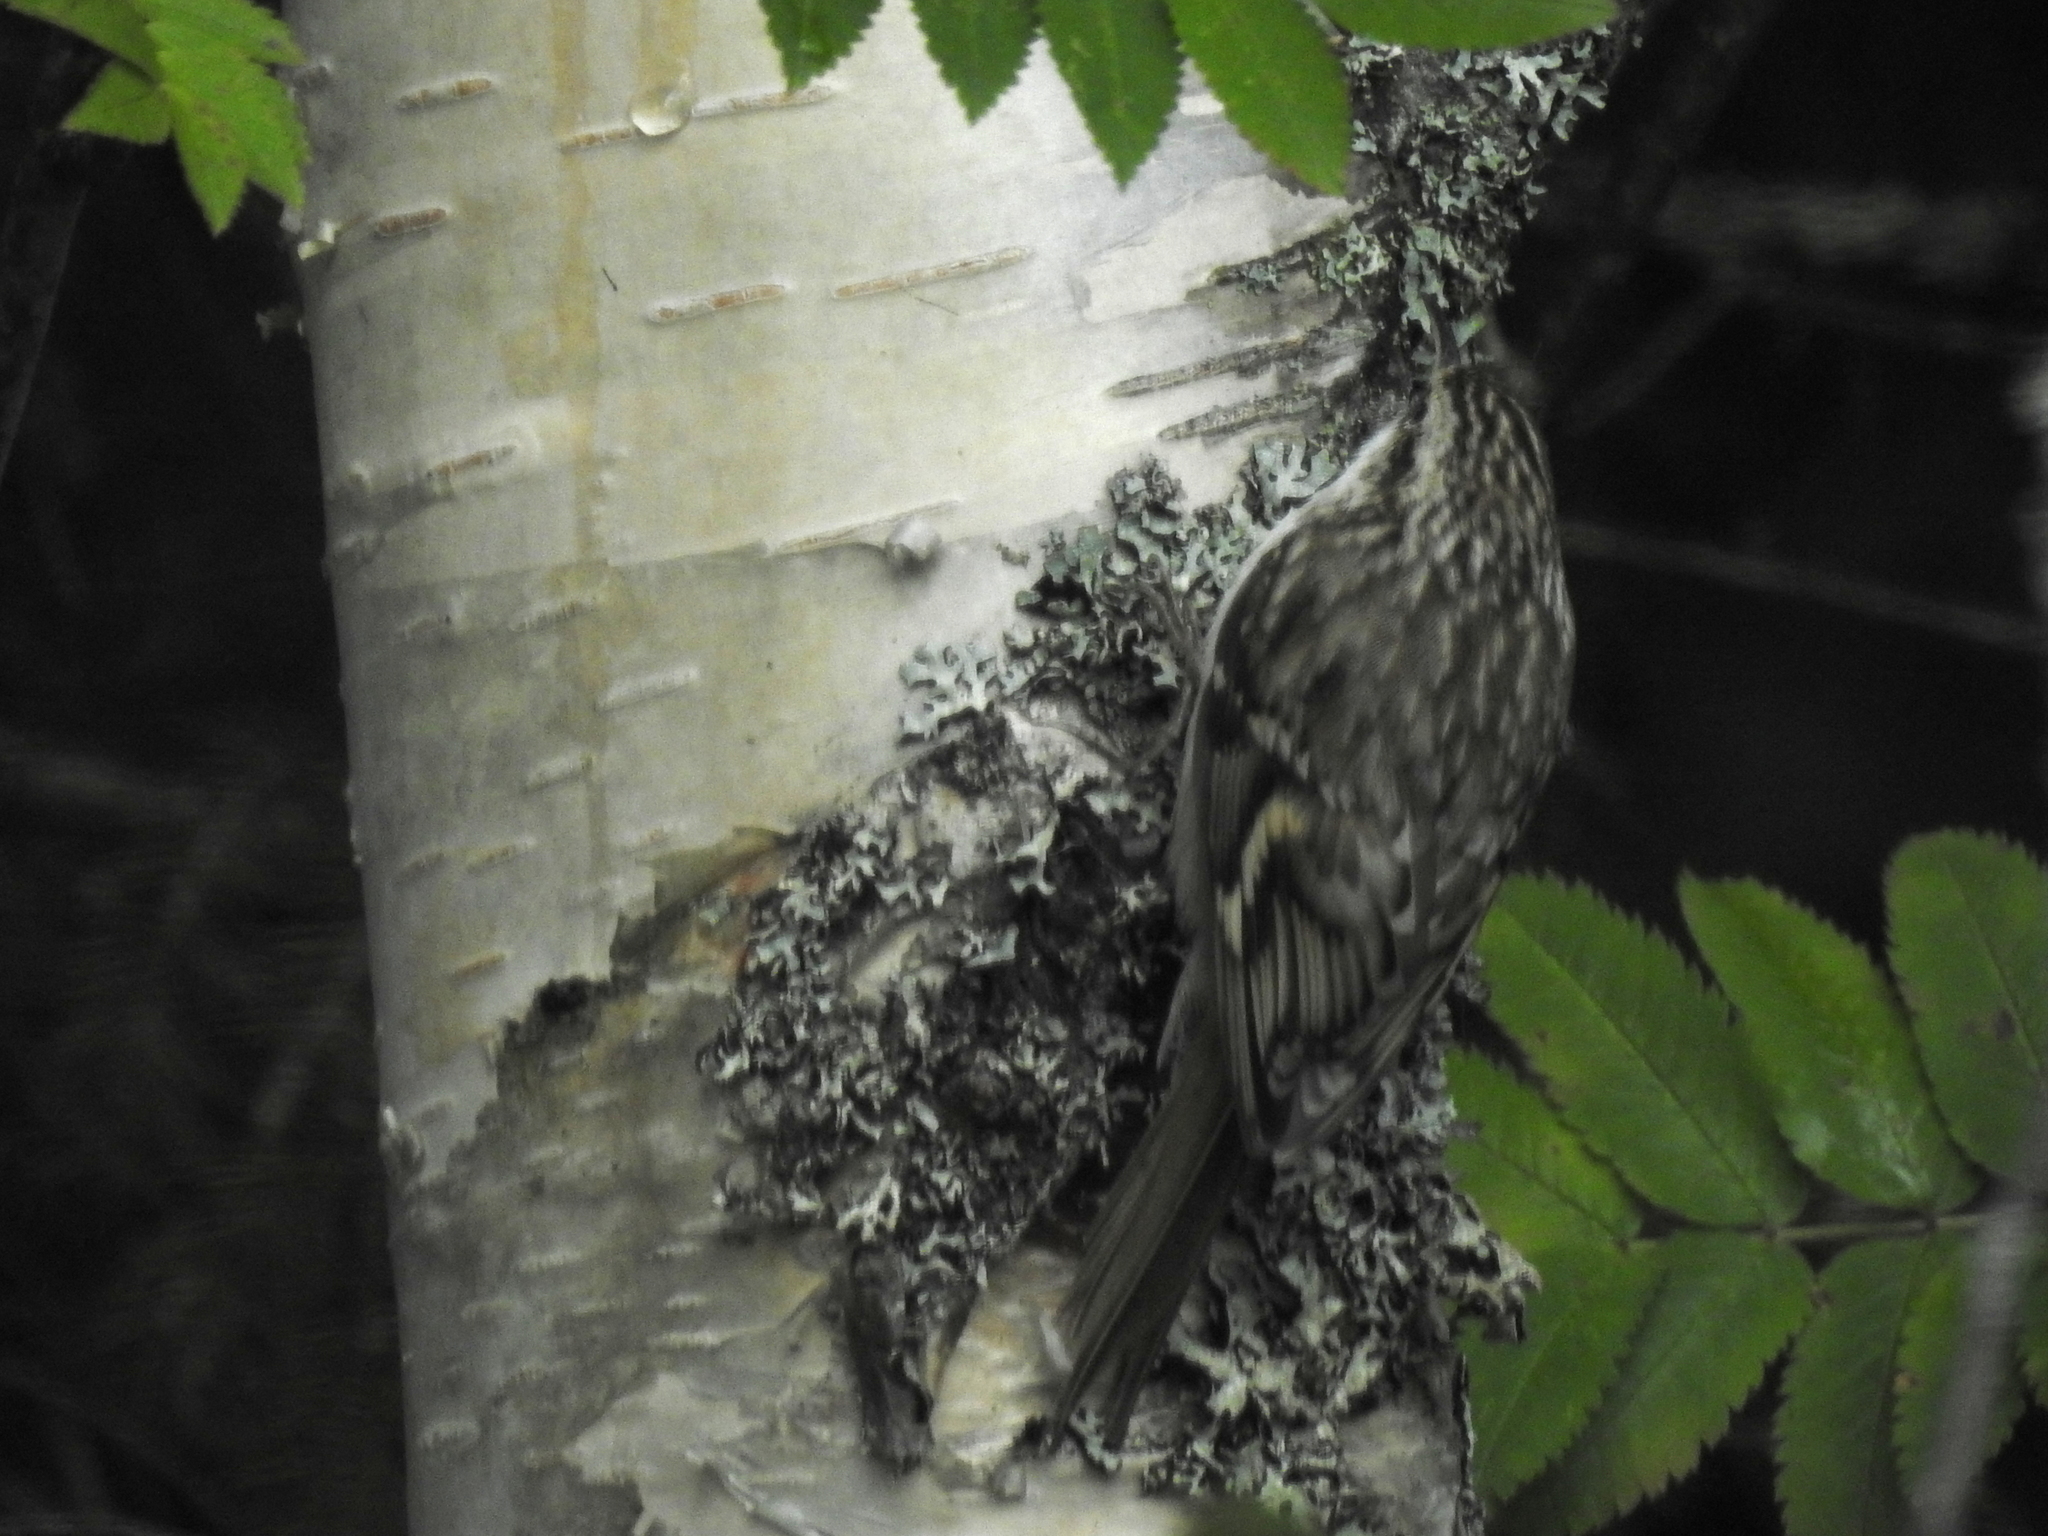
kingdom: Animalia
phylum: Chordata
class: Aves
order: Passeriformes
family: Certhiidae
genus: Certhia
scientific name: Certhia familiaris
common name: Eurasian treecreeper
